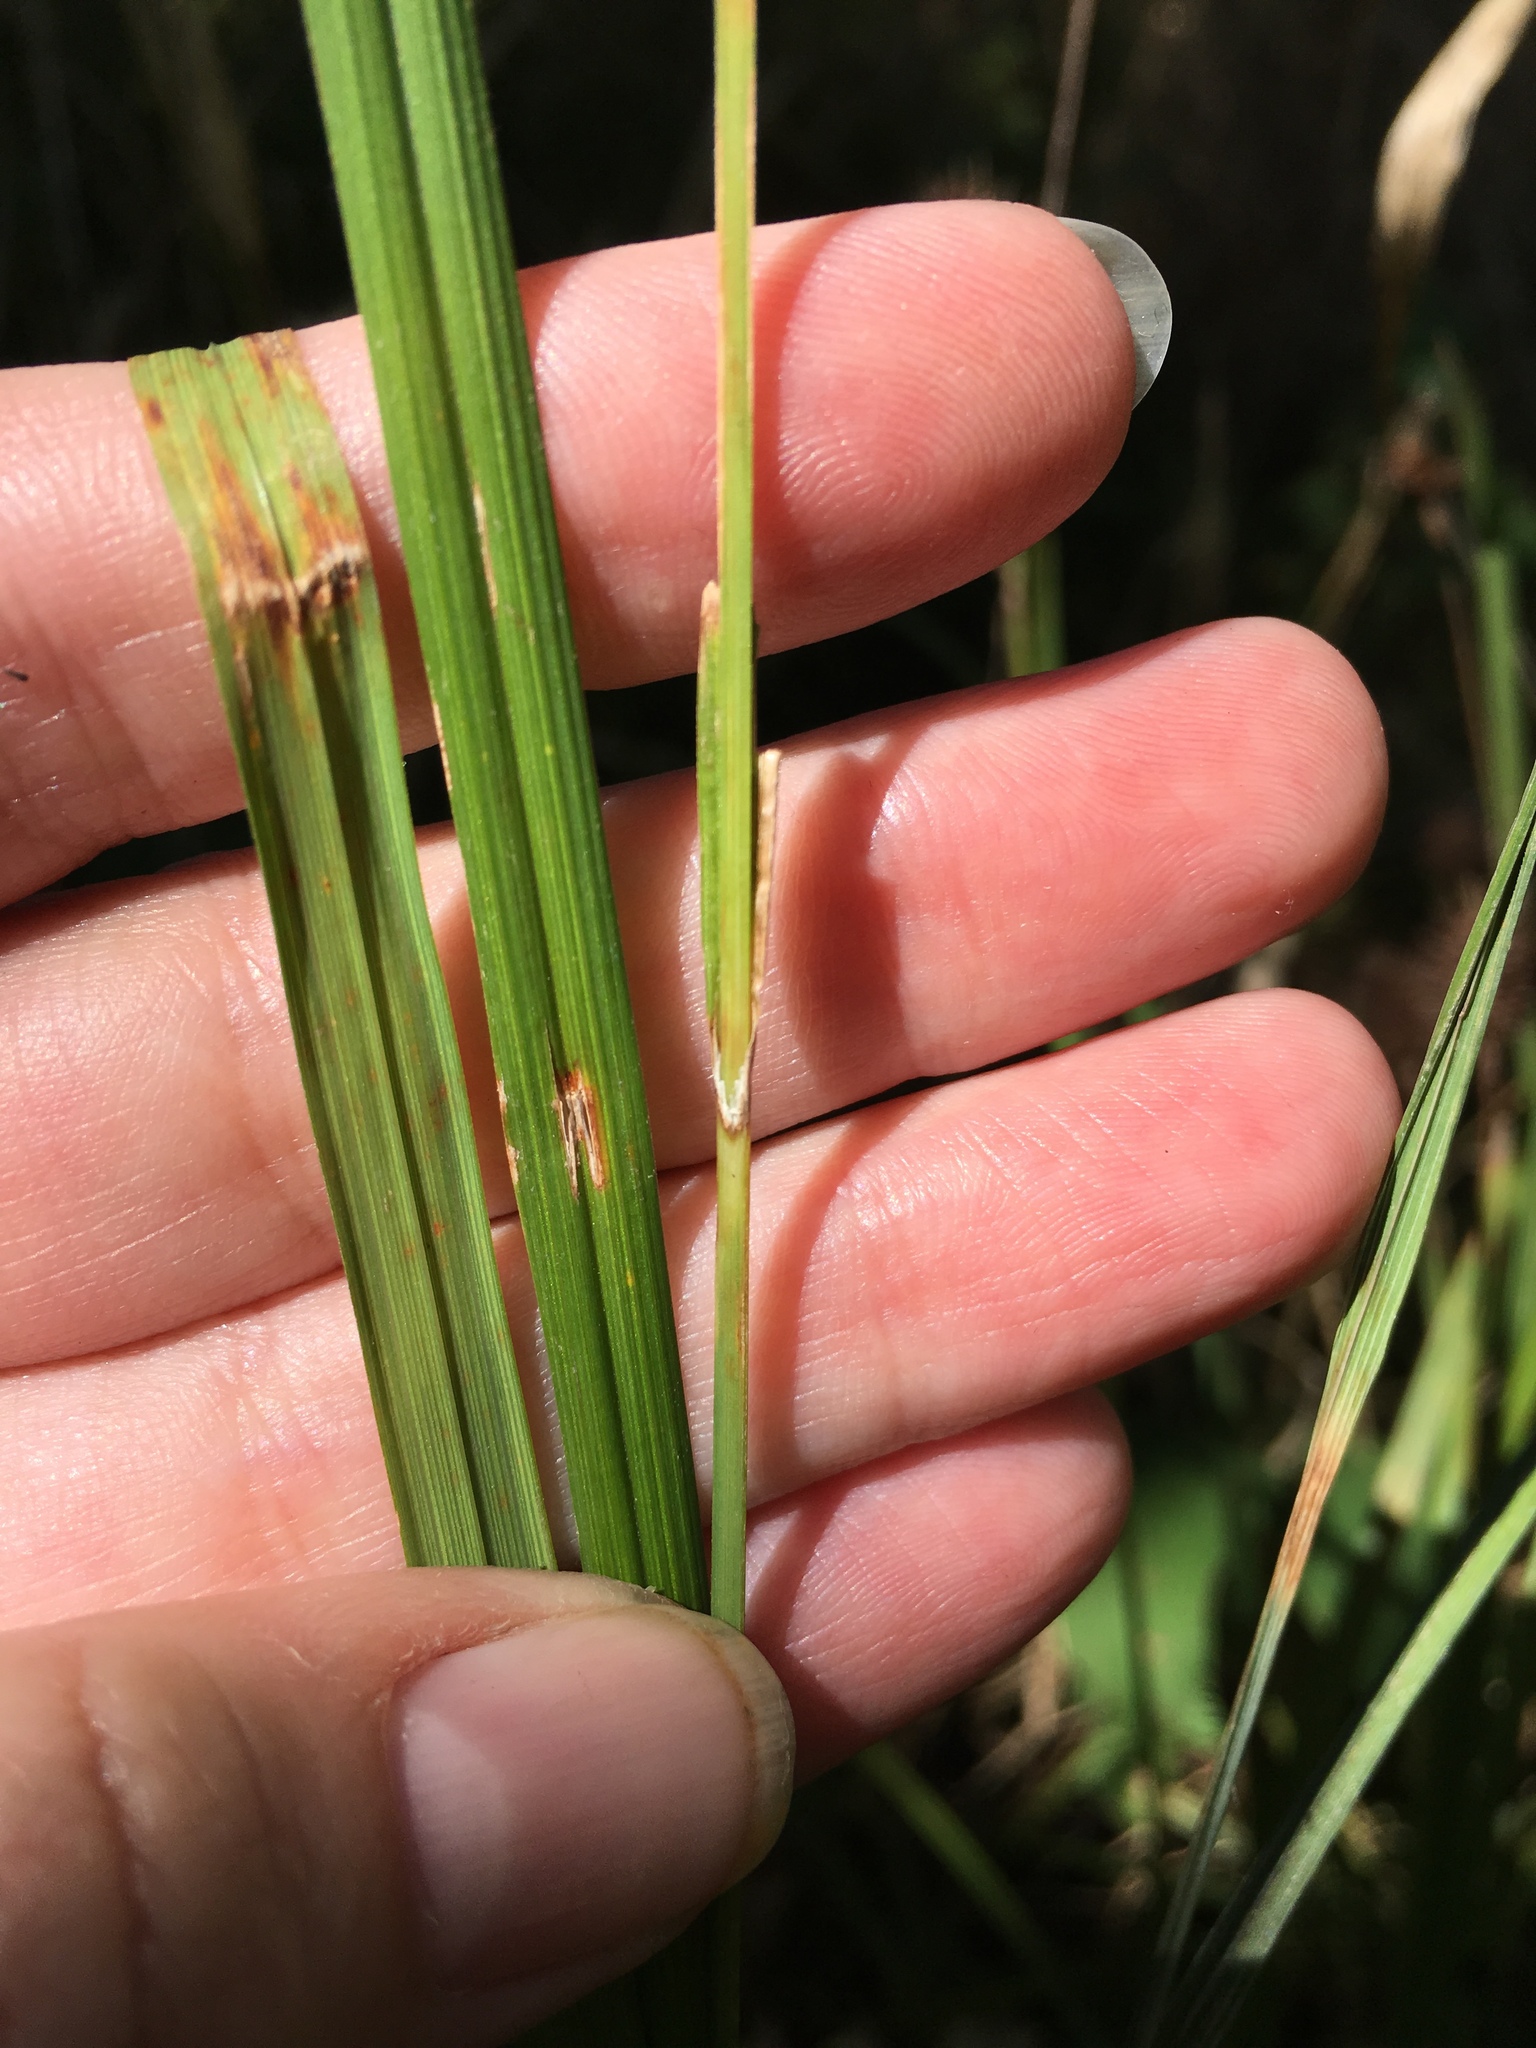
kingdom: Plantae
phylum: Tracheophyta
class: Liliopsida
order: Poales
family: Cyperaceae
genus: Carex
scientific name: Carex squarrosa
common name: Narrow-leaved cattail sedge
